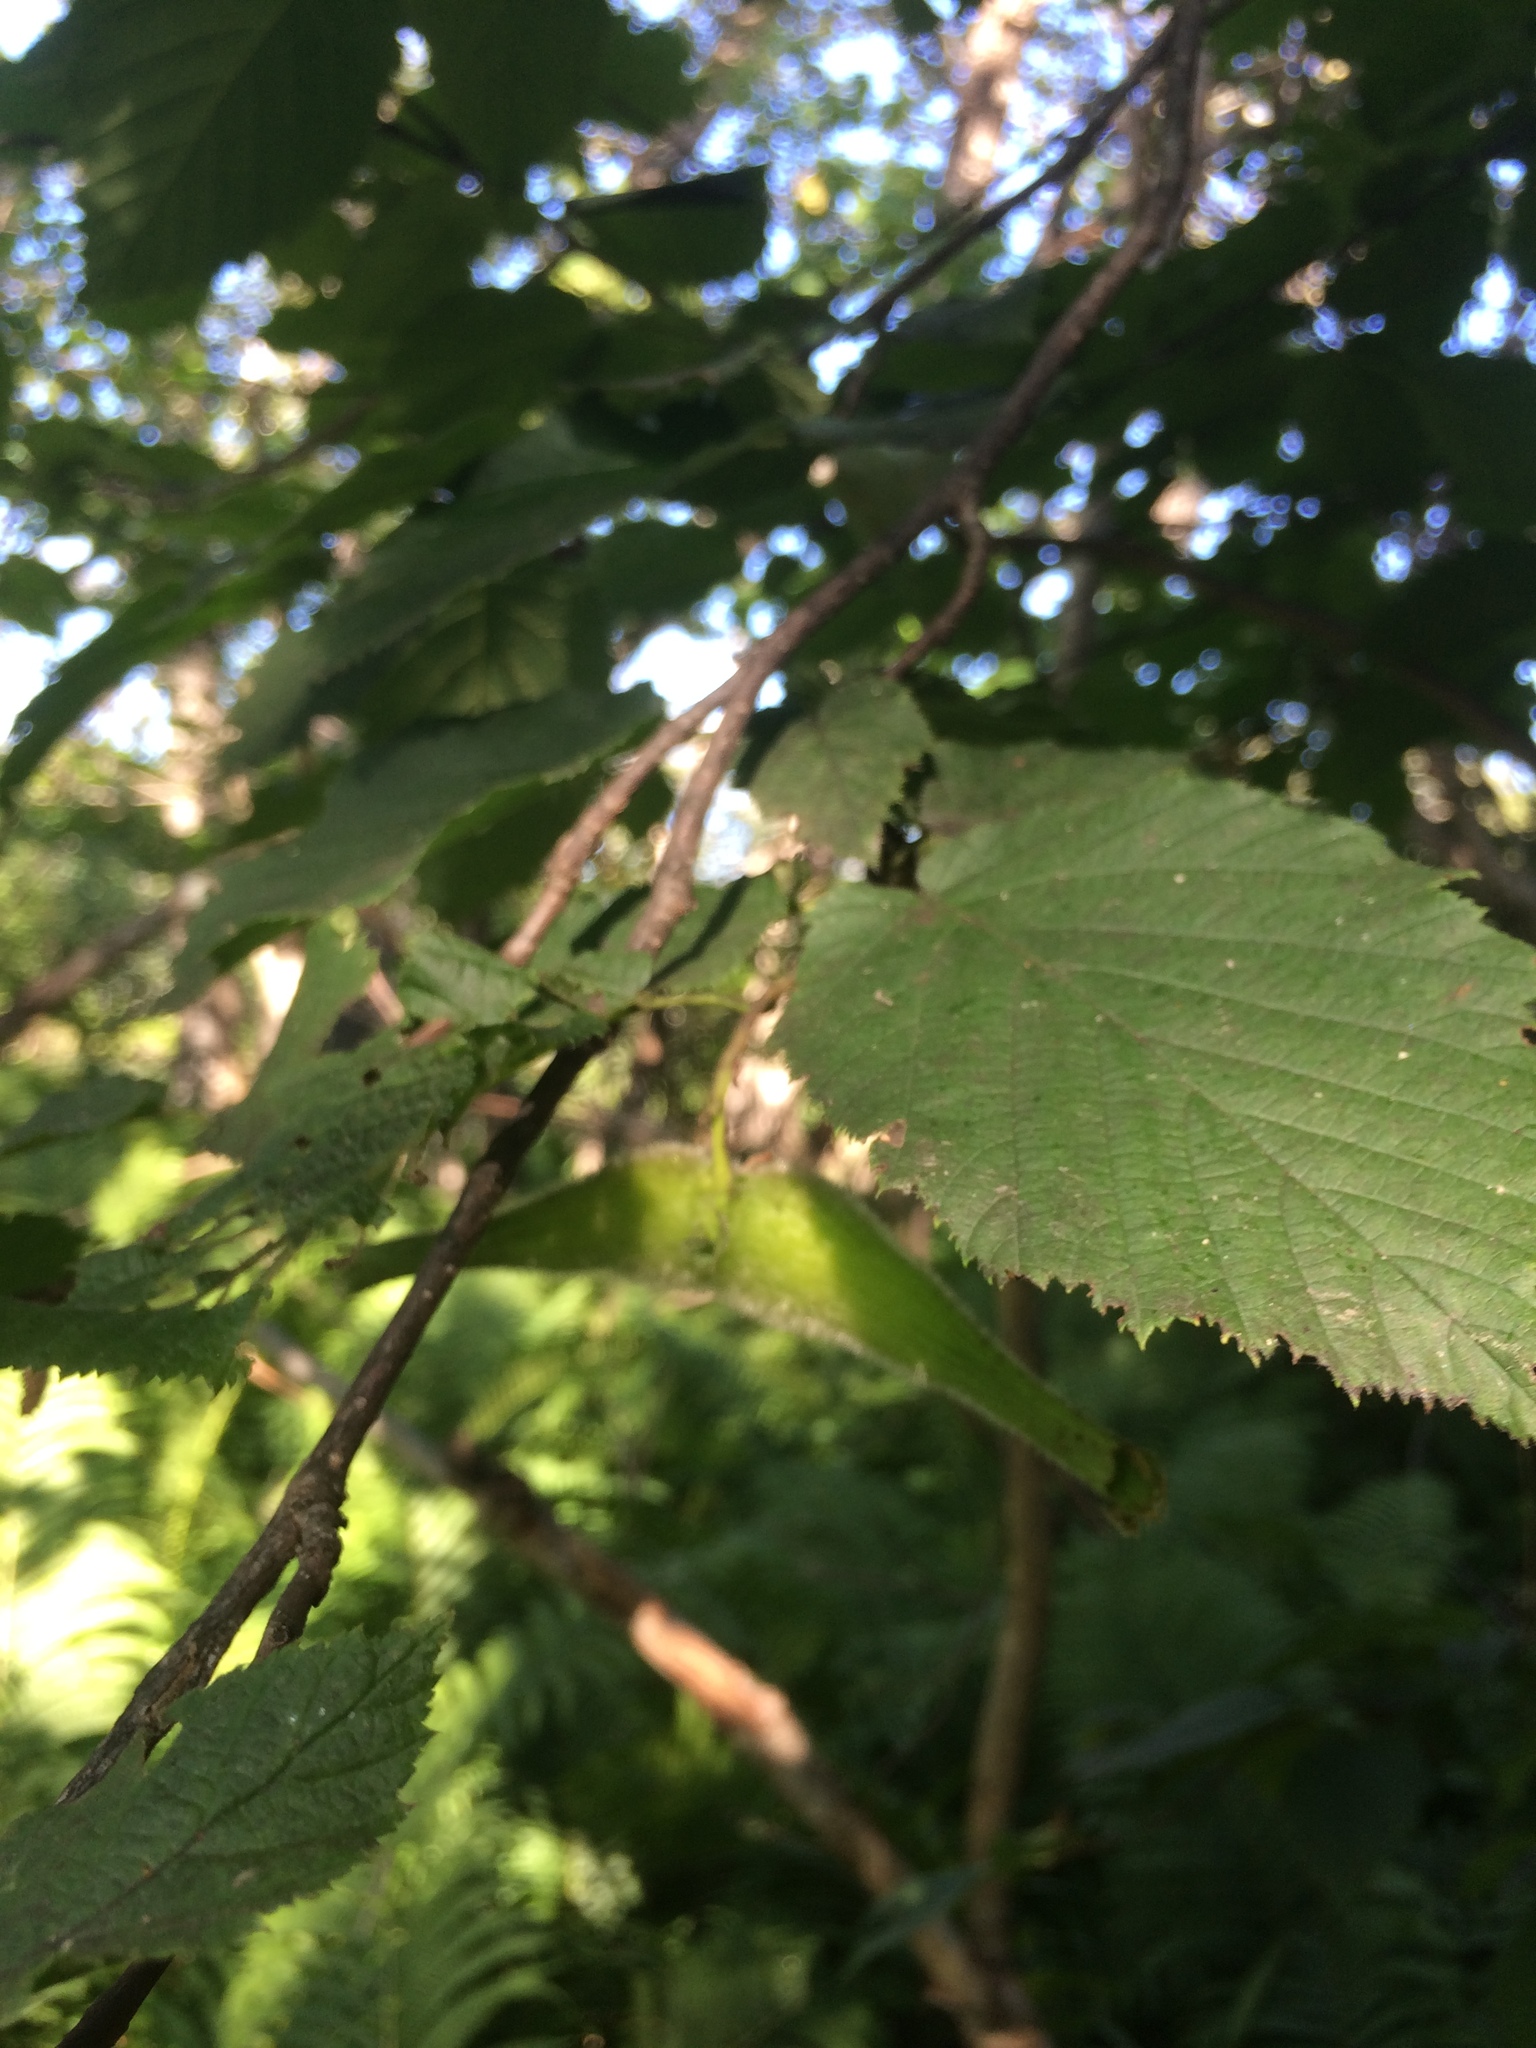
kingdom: Plantae
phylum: Tracheophyta
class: Magnoliopsida
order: Fagales
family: Betulaceae
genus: Corylus
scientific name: Corylus cornuta
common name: Beaked hazel
